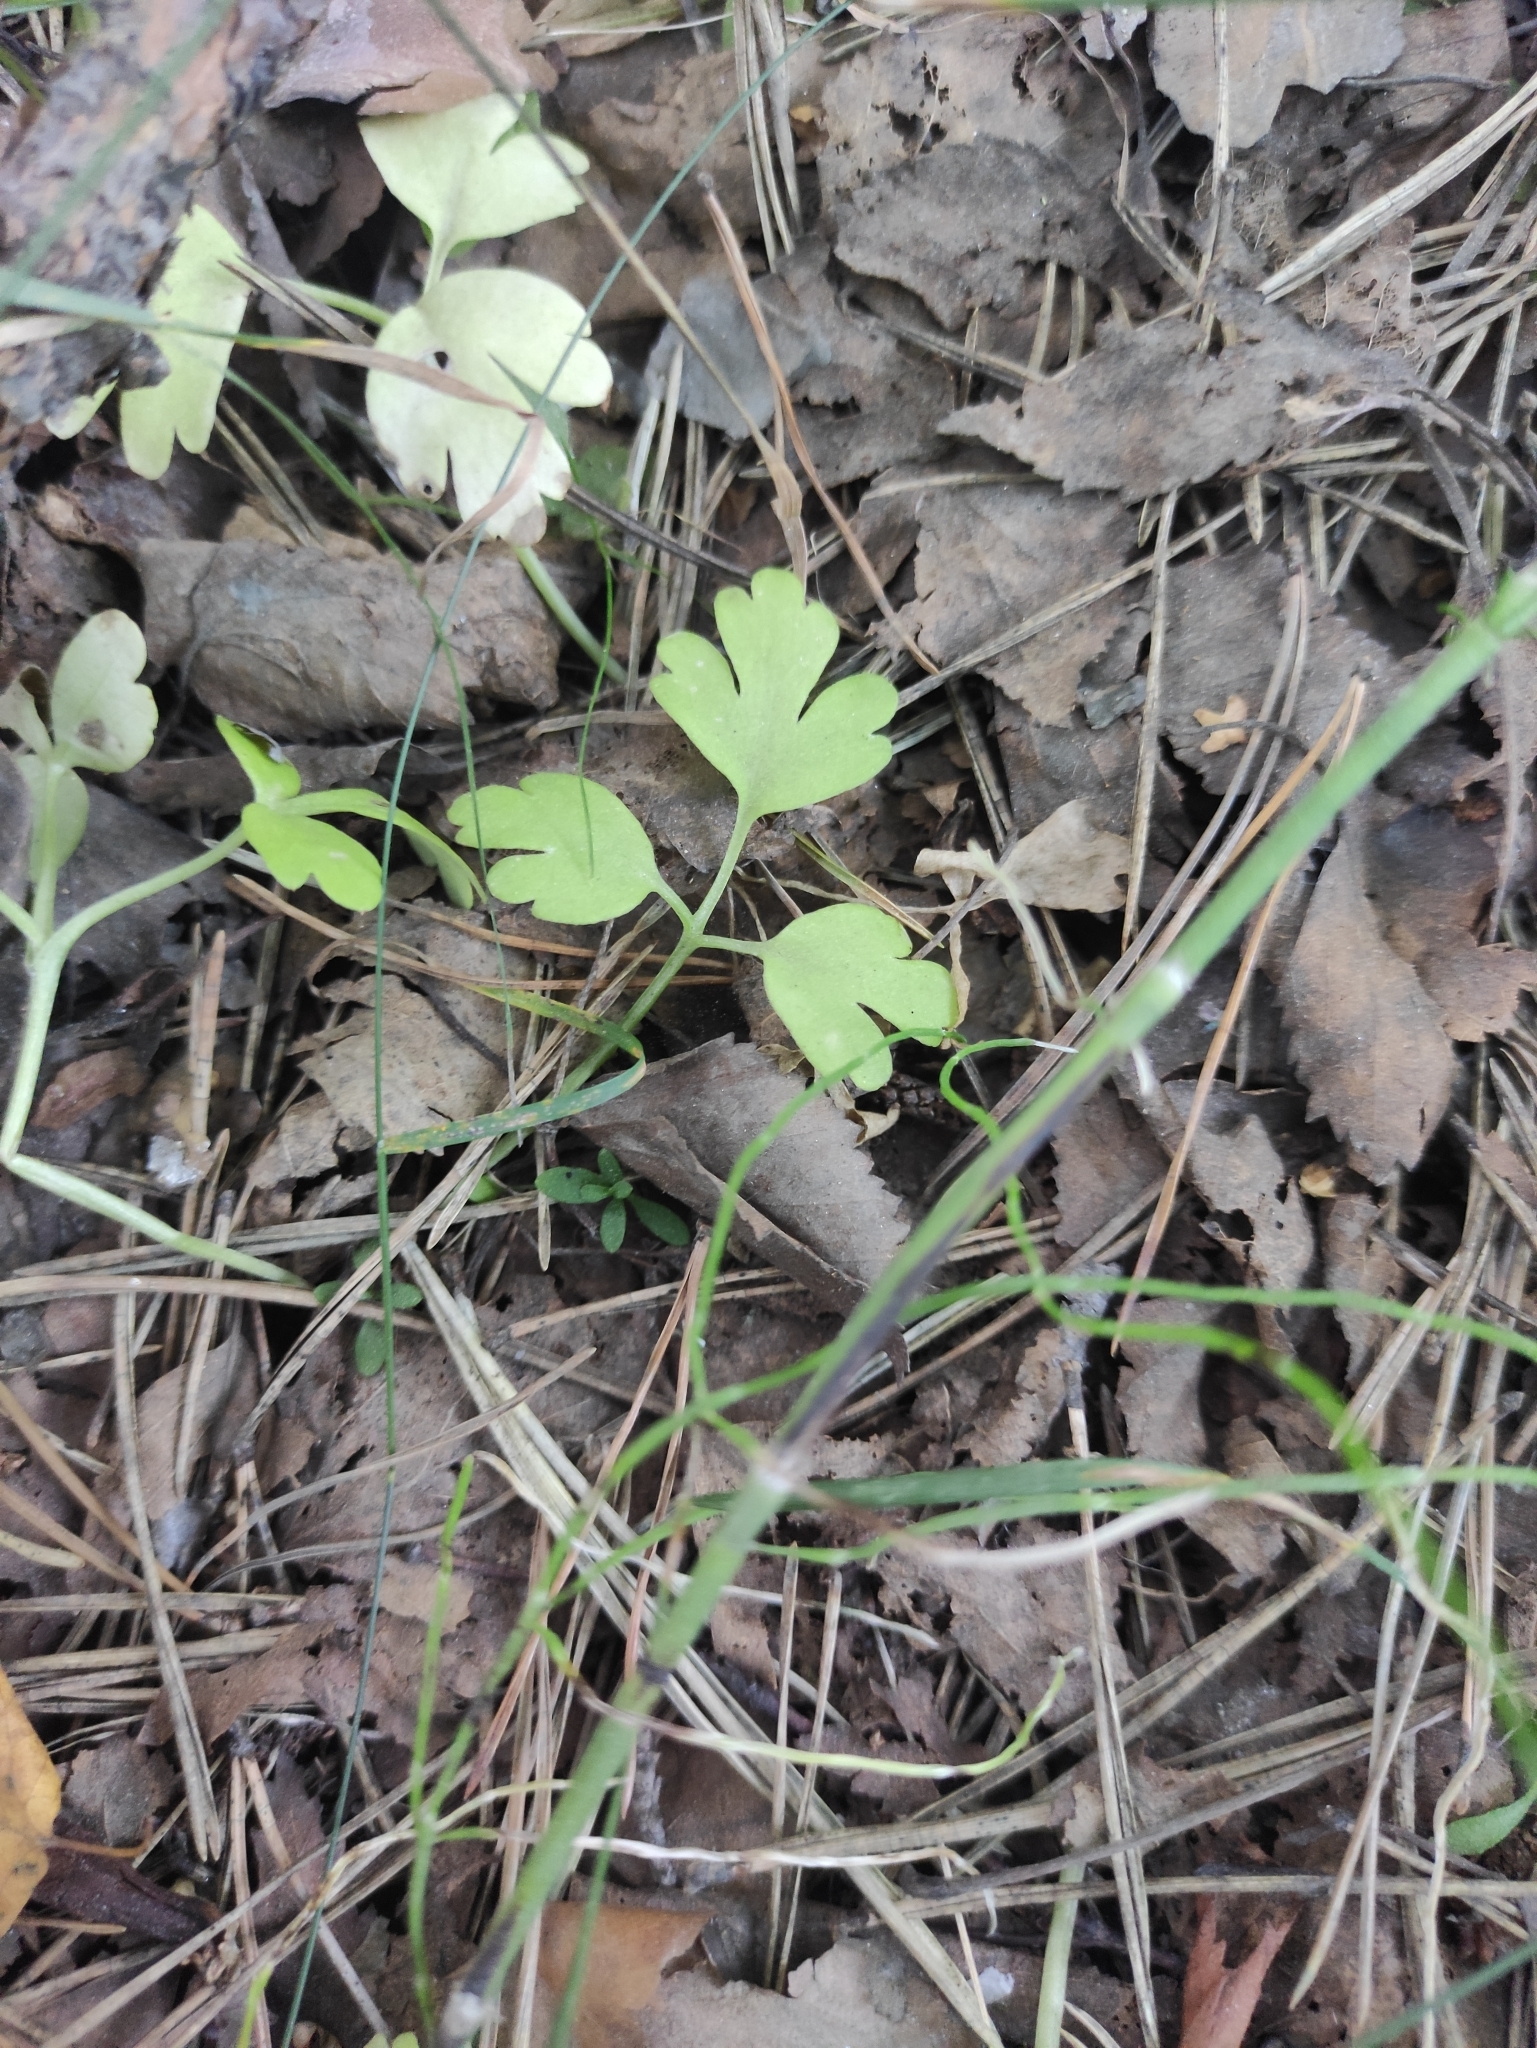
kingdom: Plantae
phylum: Tracheophyta
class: Magnoliopsida
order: Dipsacales
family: Viburnaceae
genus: Adoxa
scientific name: Adoxa moschatellina
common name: Moschatel
